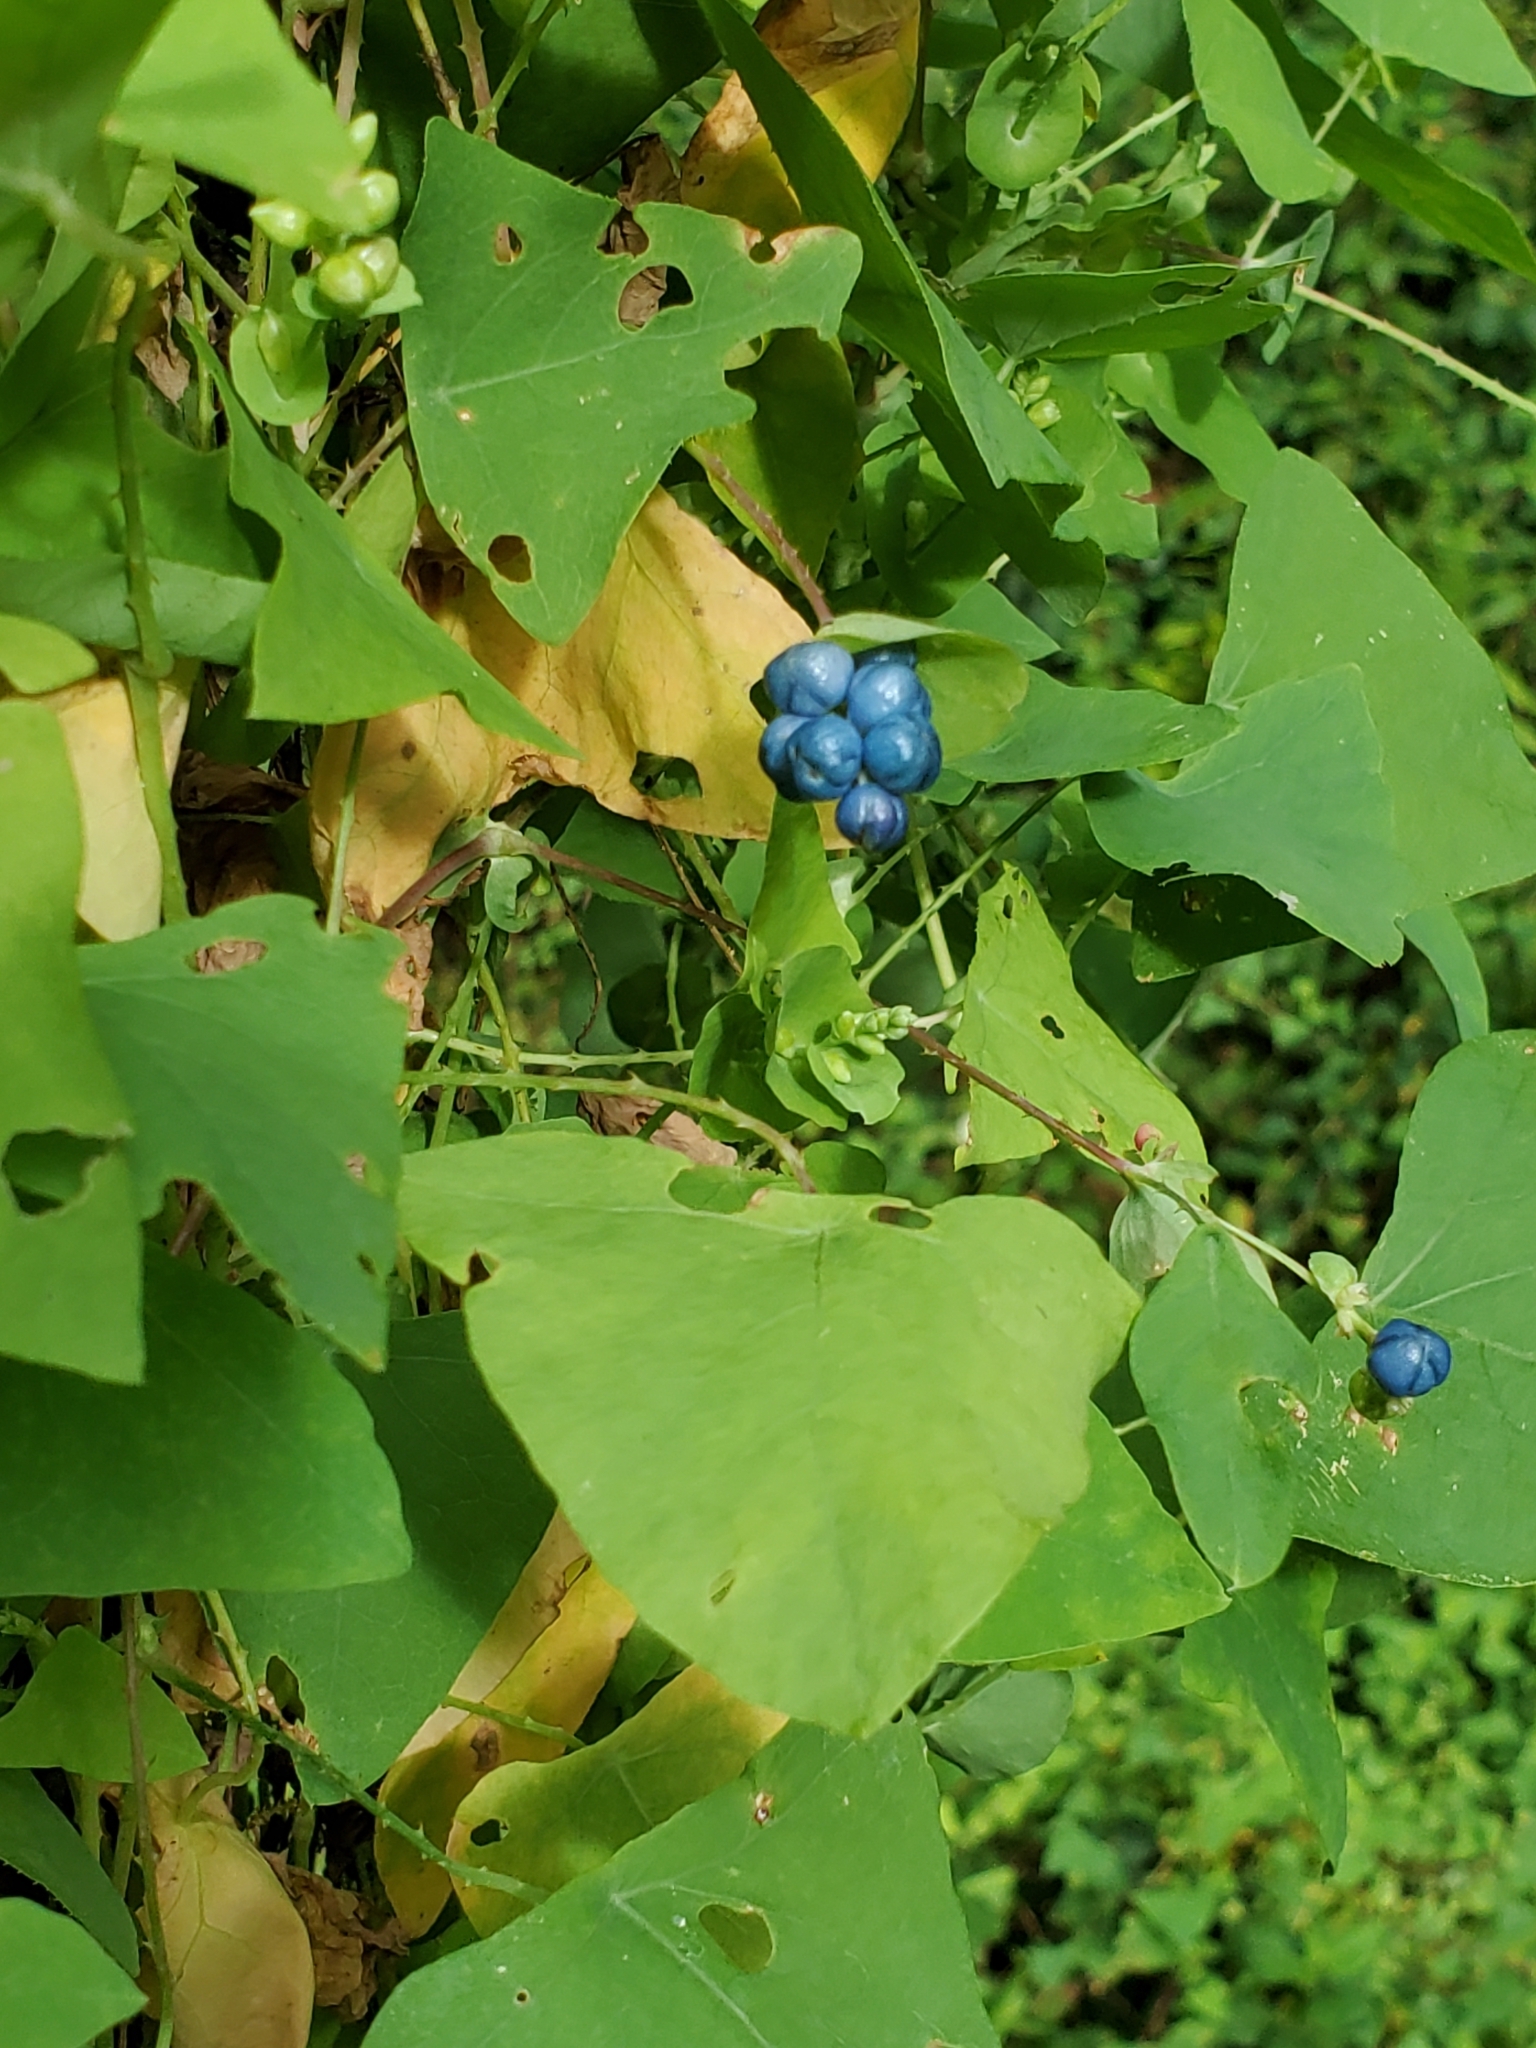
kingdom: Plantae
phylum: Tracheophyta
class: Magnoliopsida
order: Caryophyllales
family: Polygonaceae
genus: Persicaria
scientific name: Persicaria perfoliata
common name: Asiatic tearthumb
